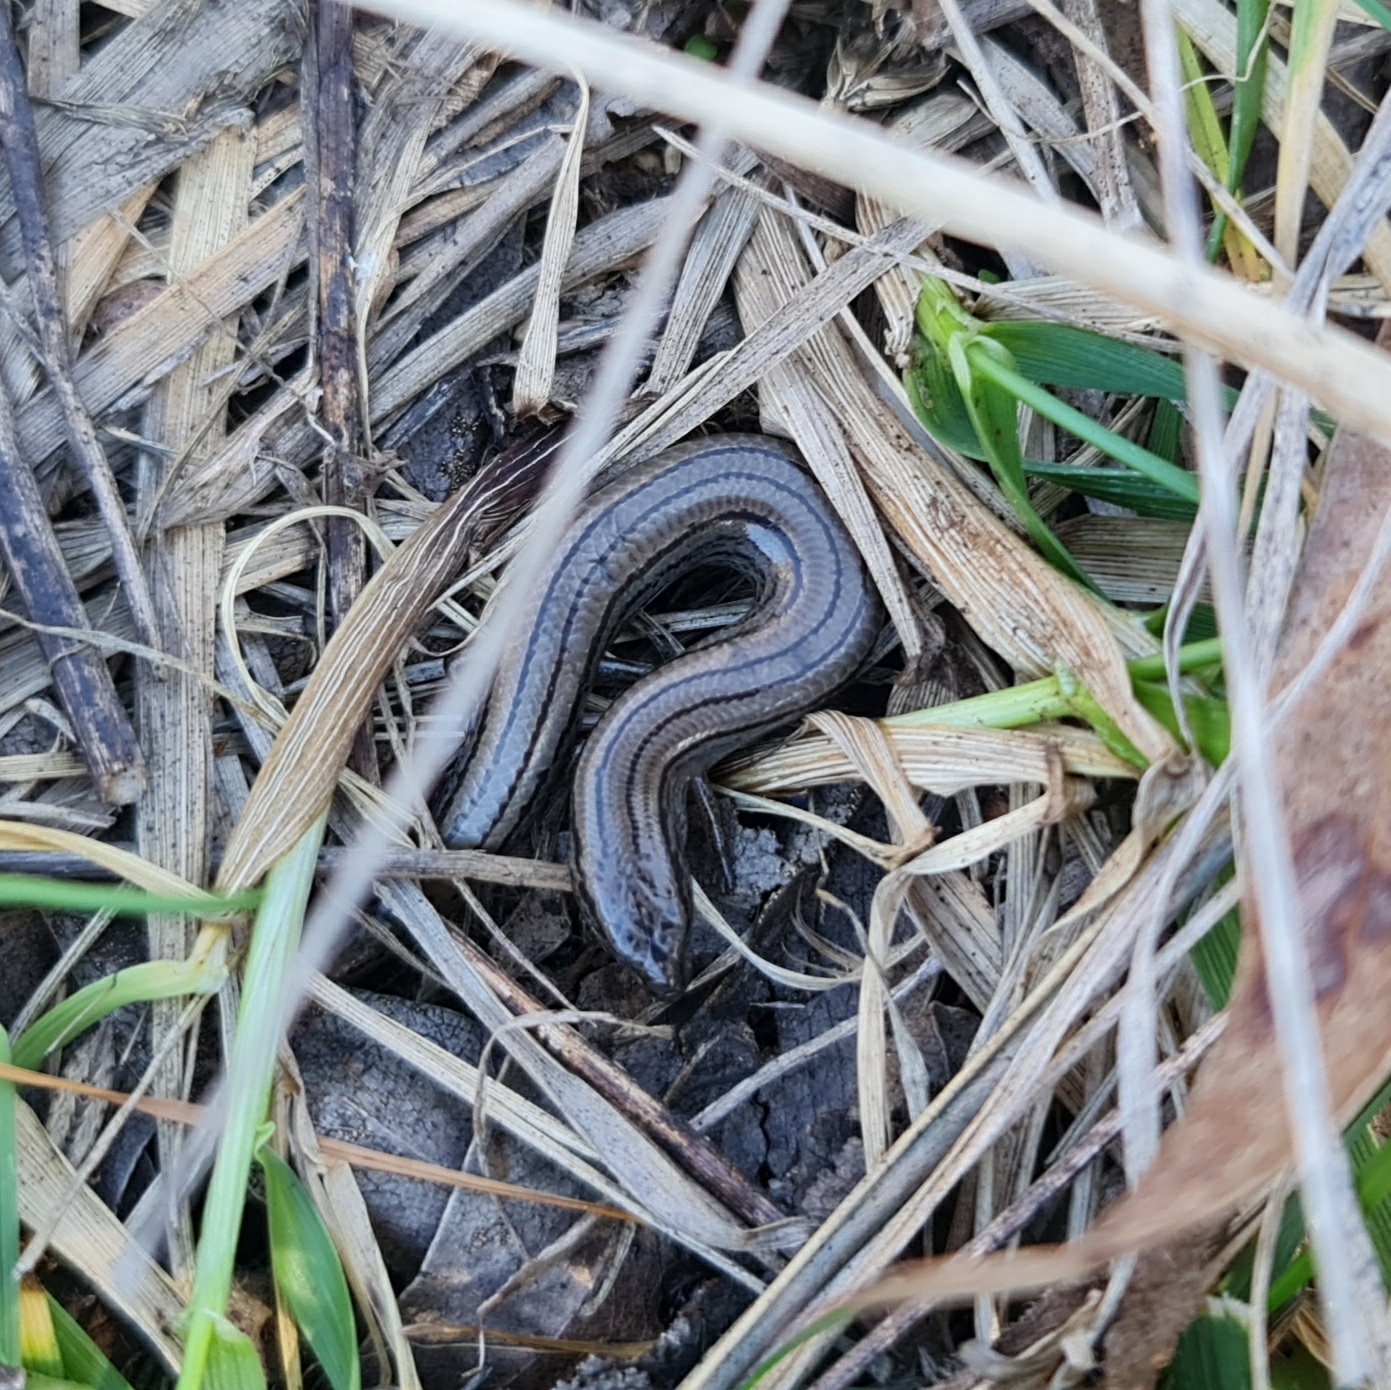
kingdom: Animalia
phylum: Chordata
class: Squamata
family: Scincidae
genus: Hemiergis
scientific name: Hemiergis talbingoensis
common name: Victoria three-toed earless skink
